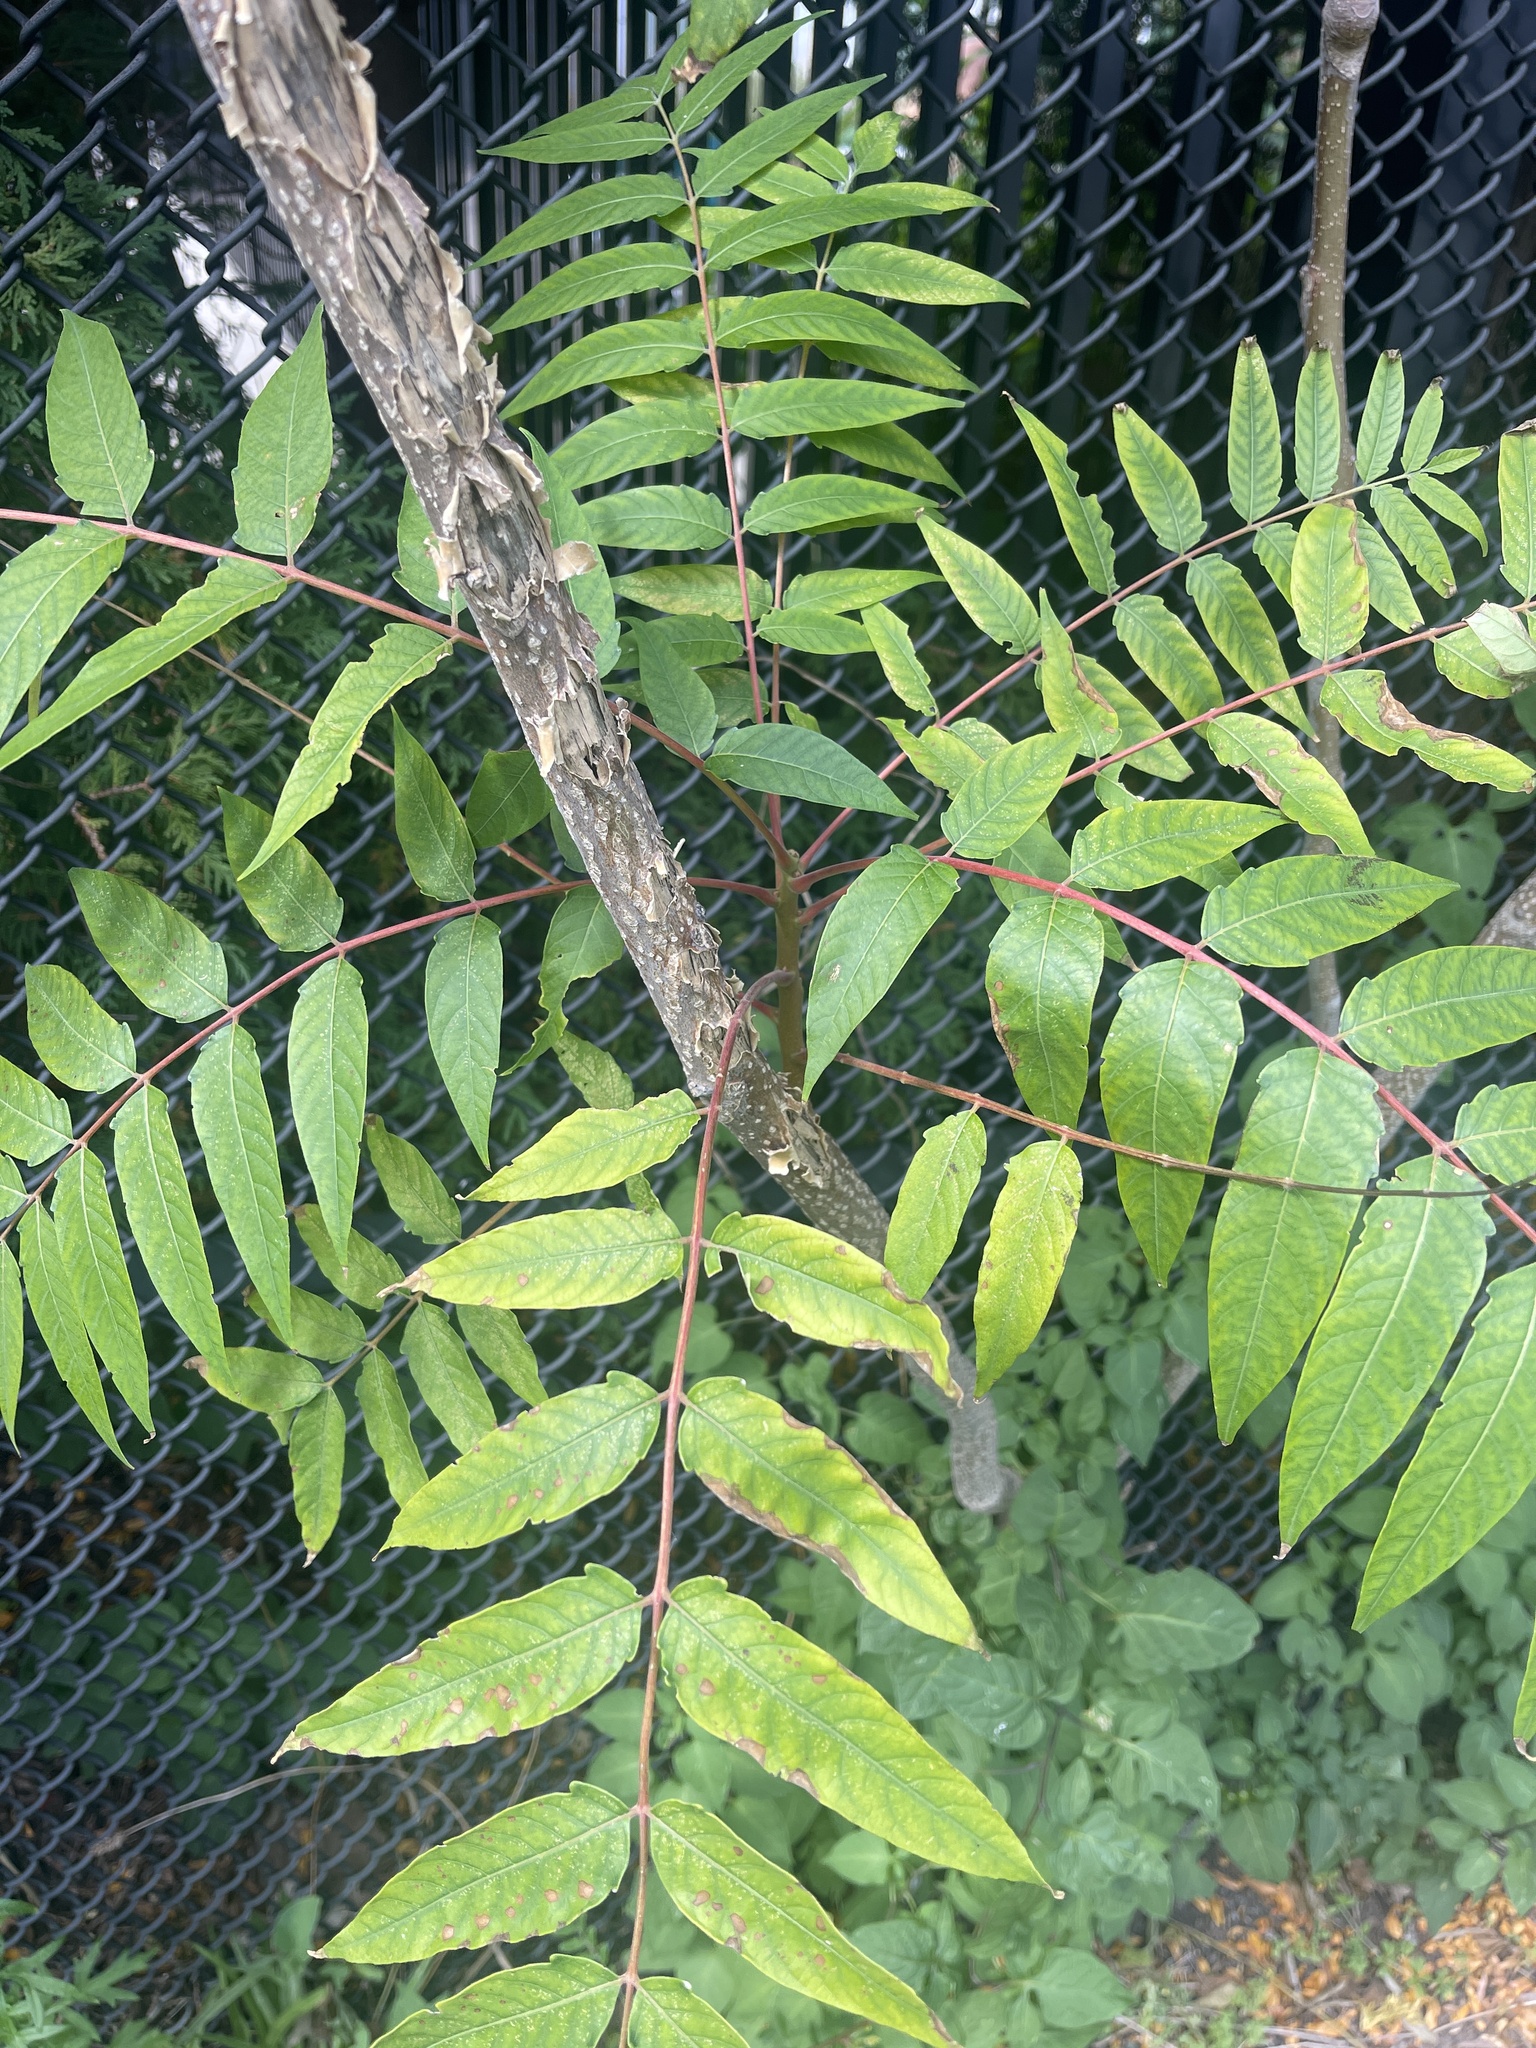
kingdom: Plantae
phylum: Tracheophyta
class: Magnoliopsida
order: Sapindales
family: Simaroubaceae
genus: Ailanthus
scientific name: Ailanthus altissima
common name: Tree-of-heaven
